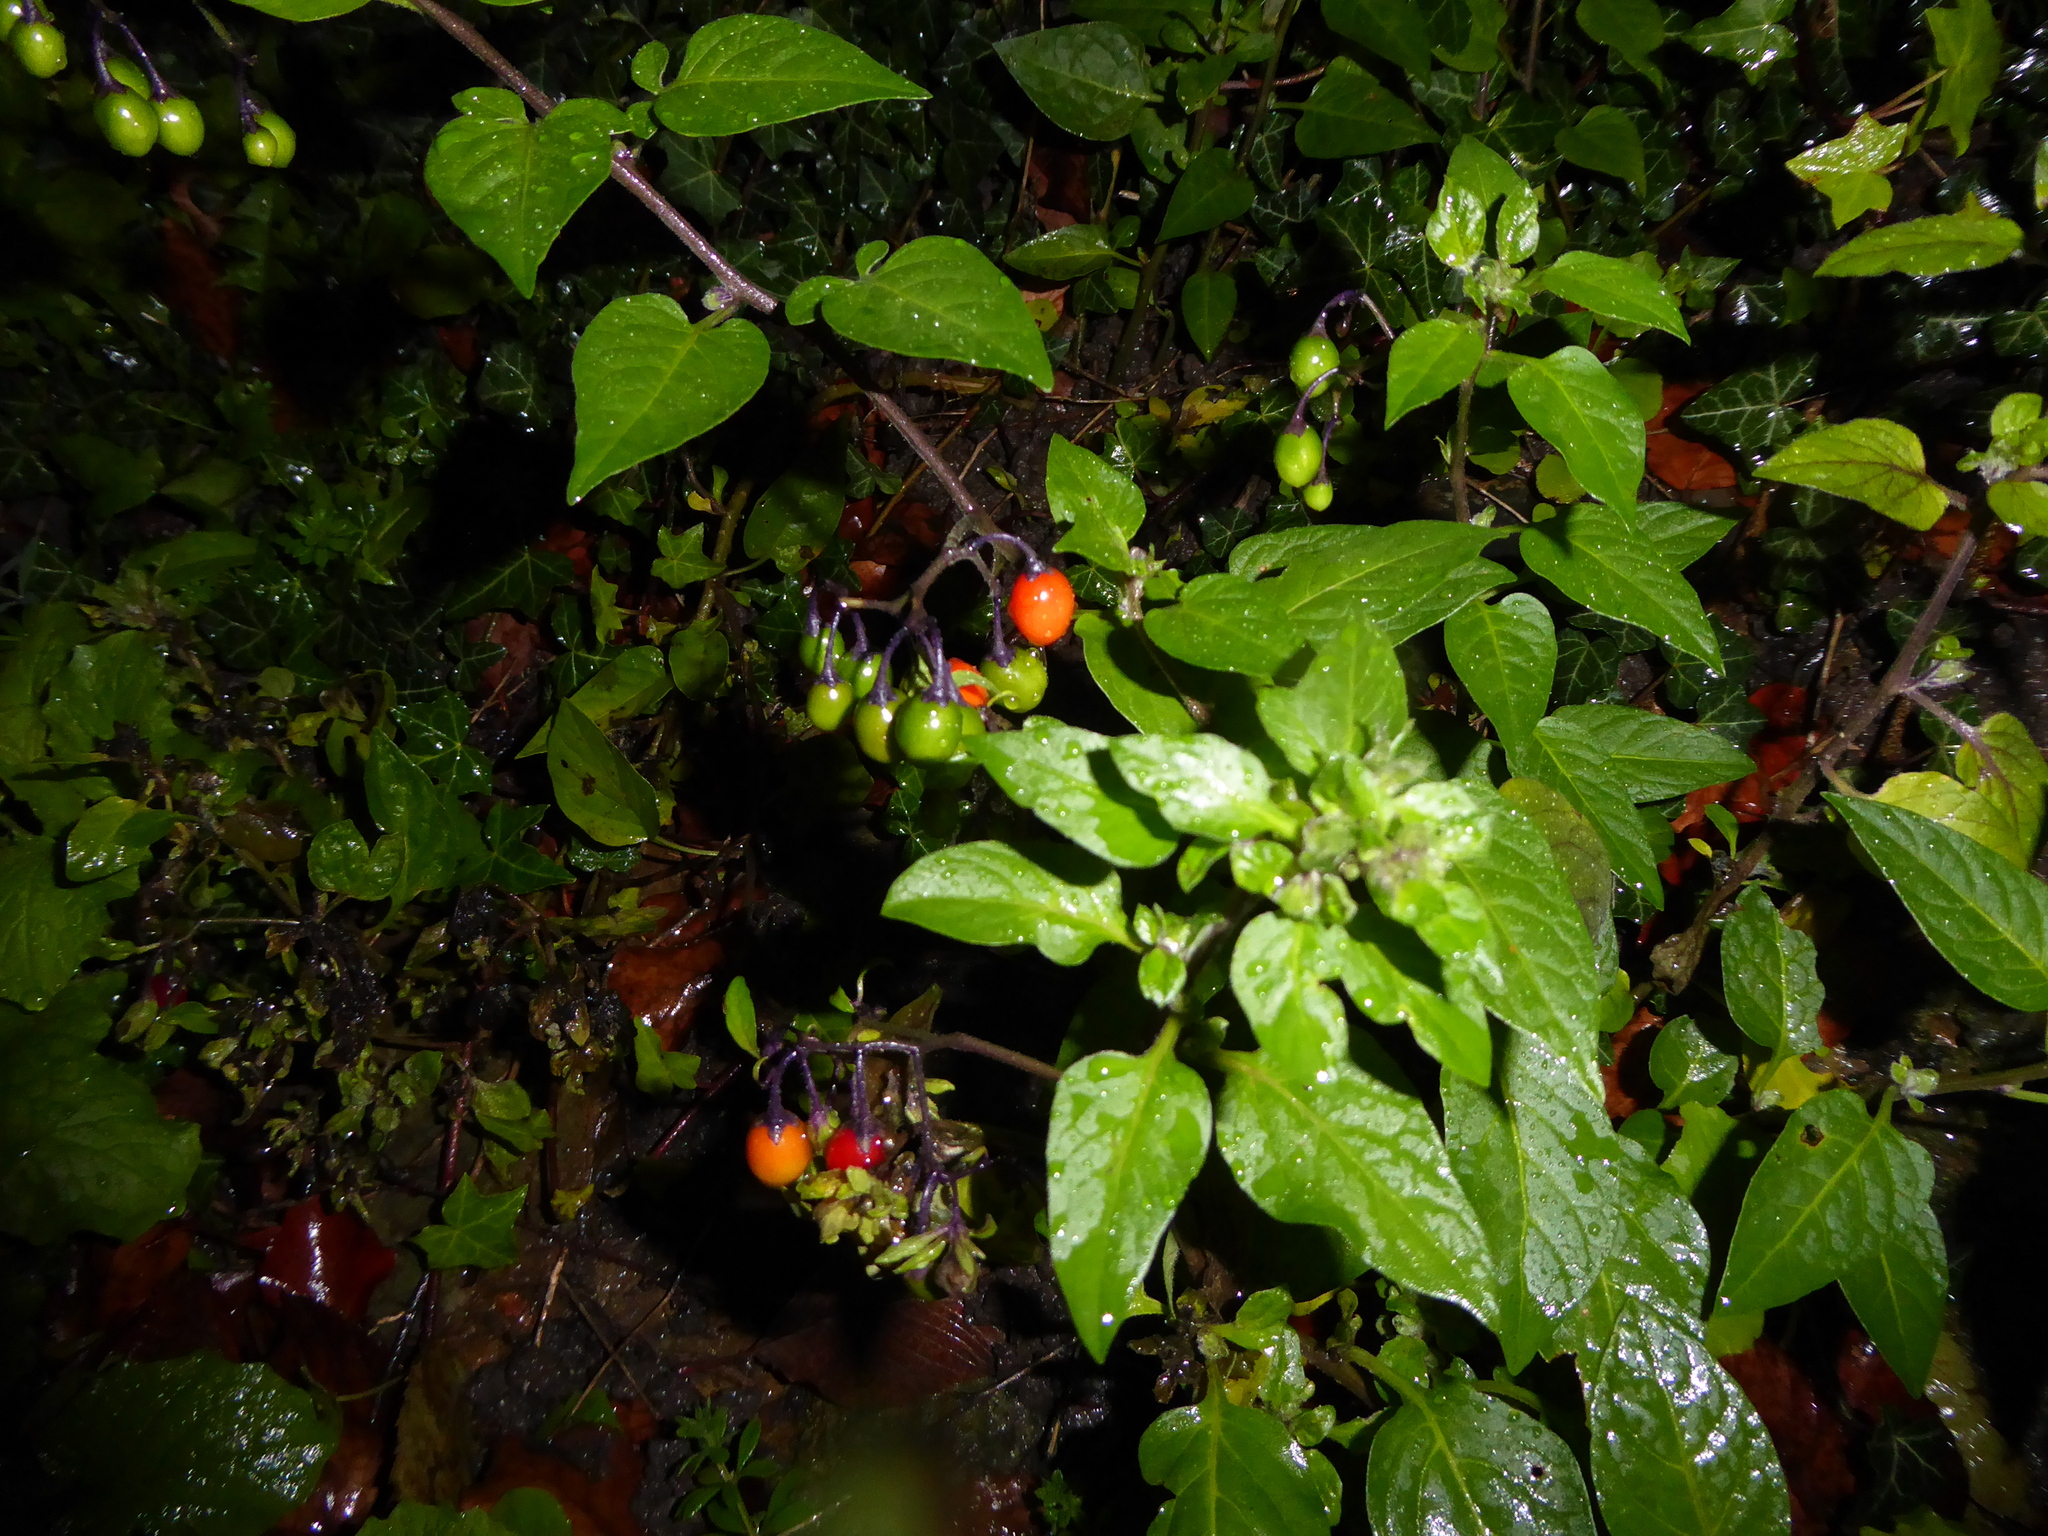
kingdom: Plantae
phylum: Tracheophyta
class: Magnoliopsida
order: Solanales
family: Solanaceae
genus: Solanum
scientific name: Solanum dulcamara
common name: Climbing nightshade
